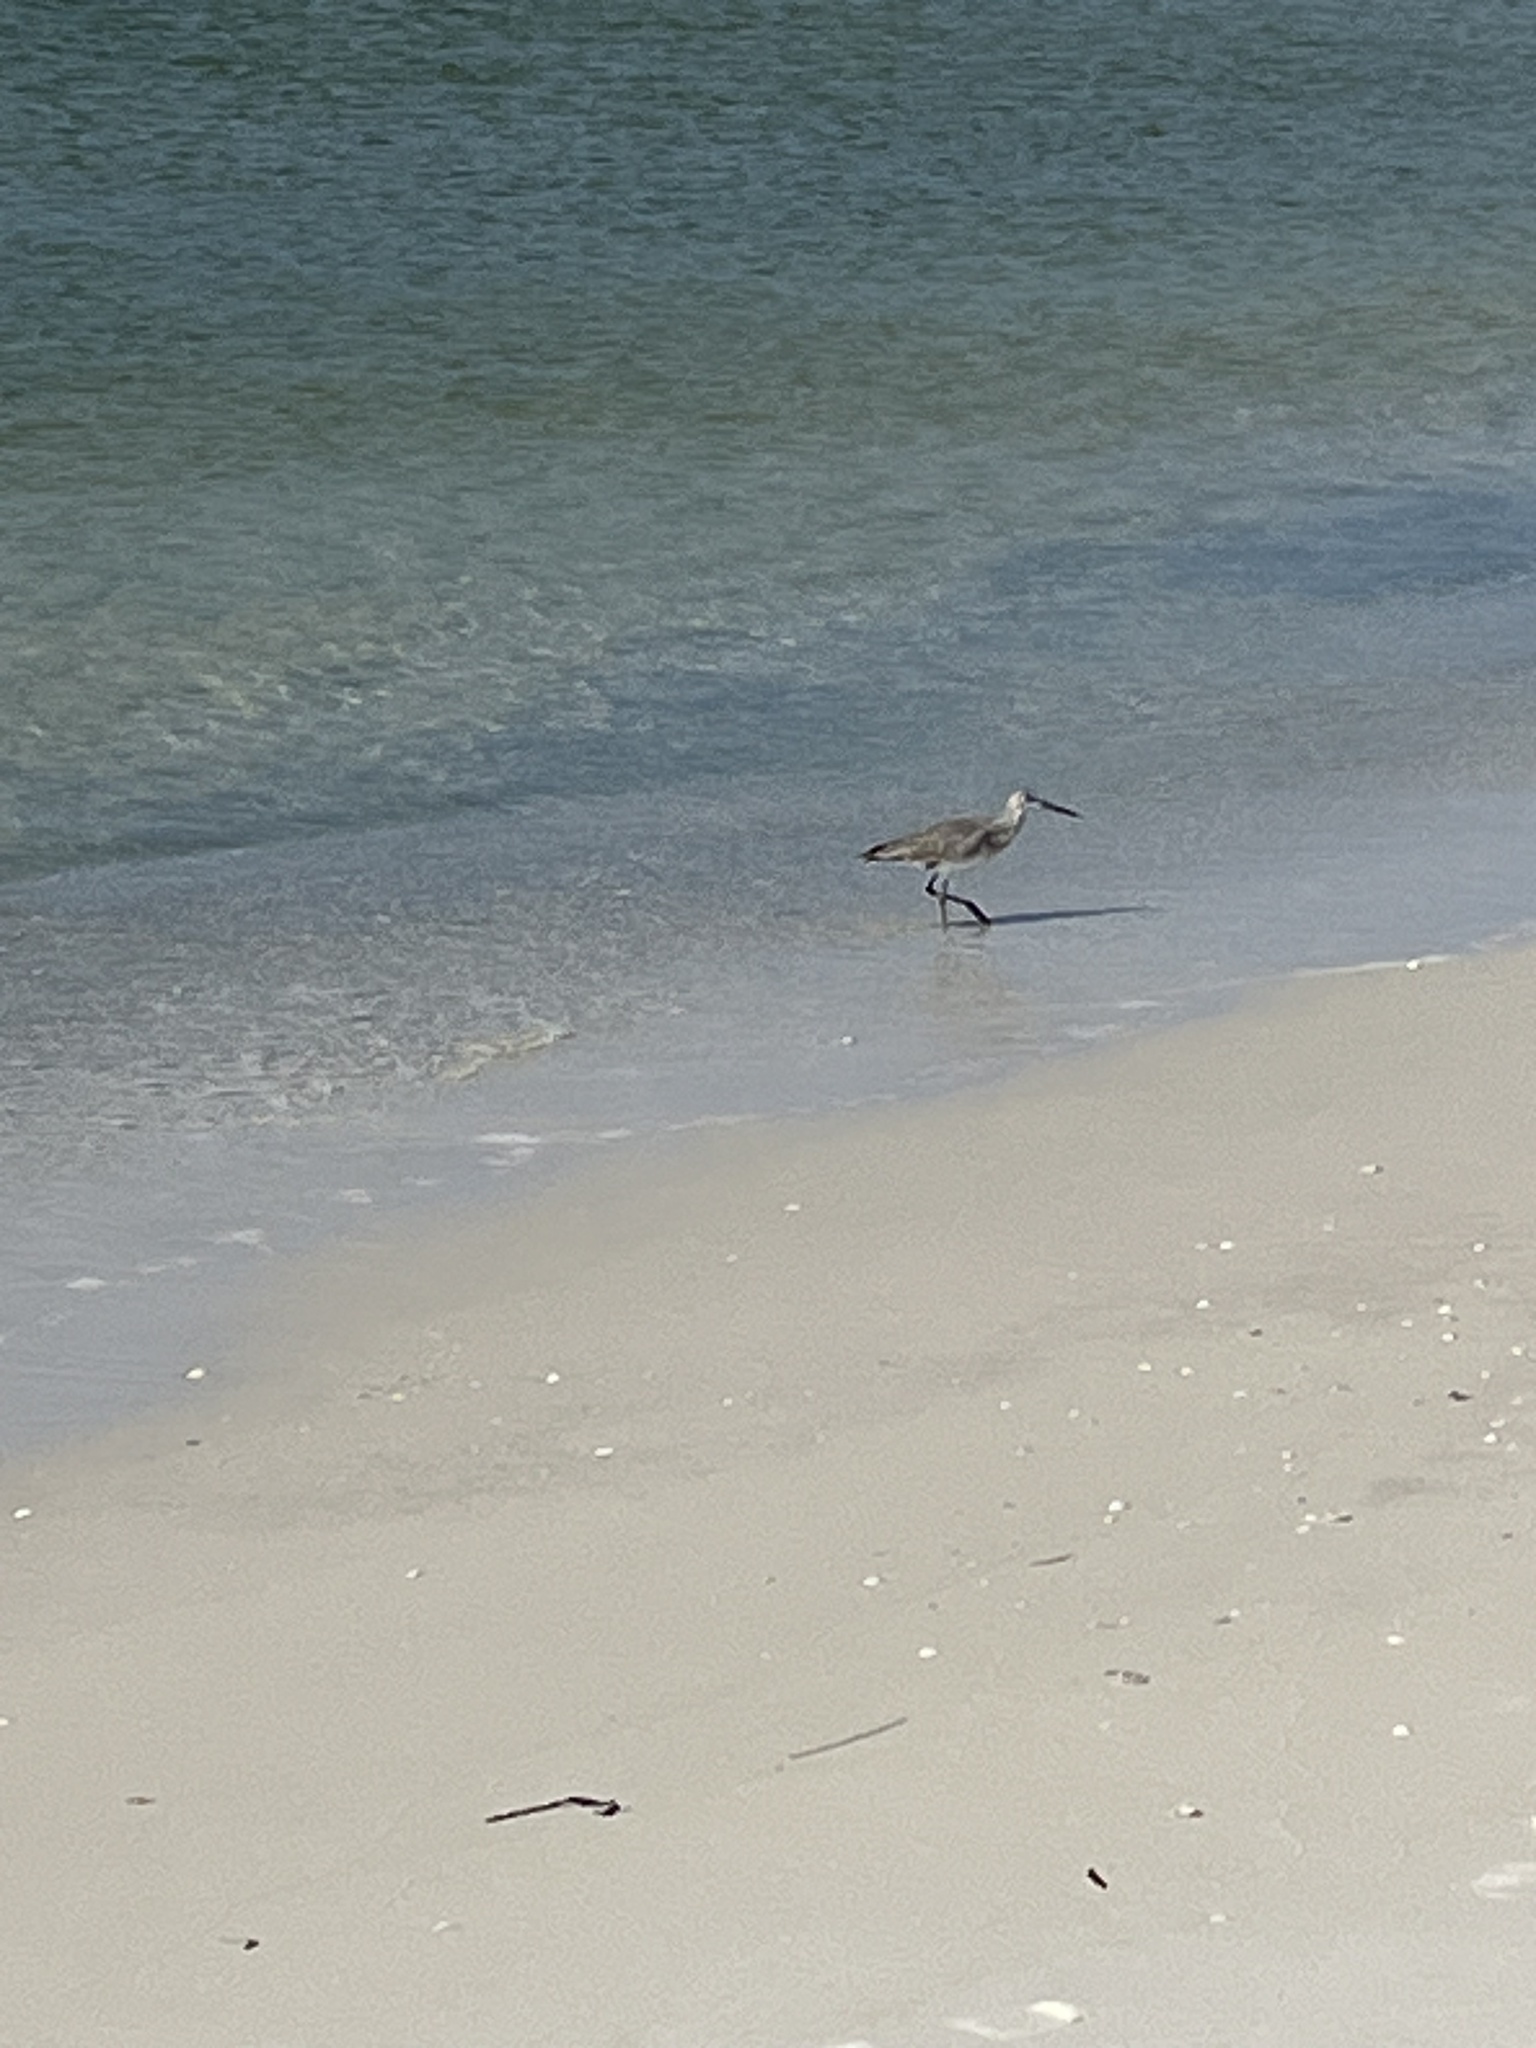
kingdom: Animalia
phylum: Chordata
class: Aves
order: Charadriiformes
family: Scolopacidae
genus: Tringa
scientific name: Tringa semipalmata
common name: Willet
